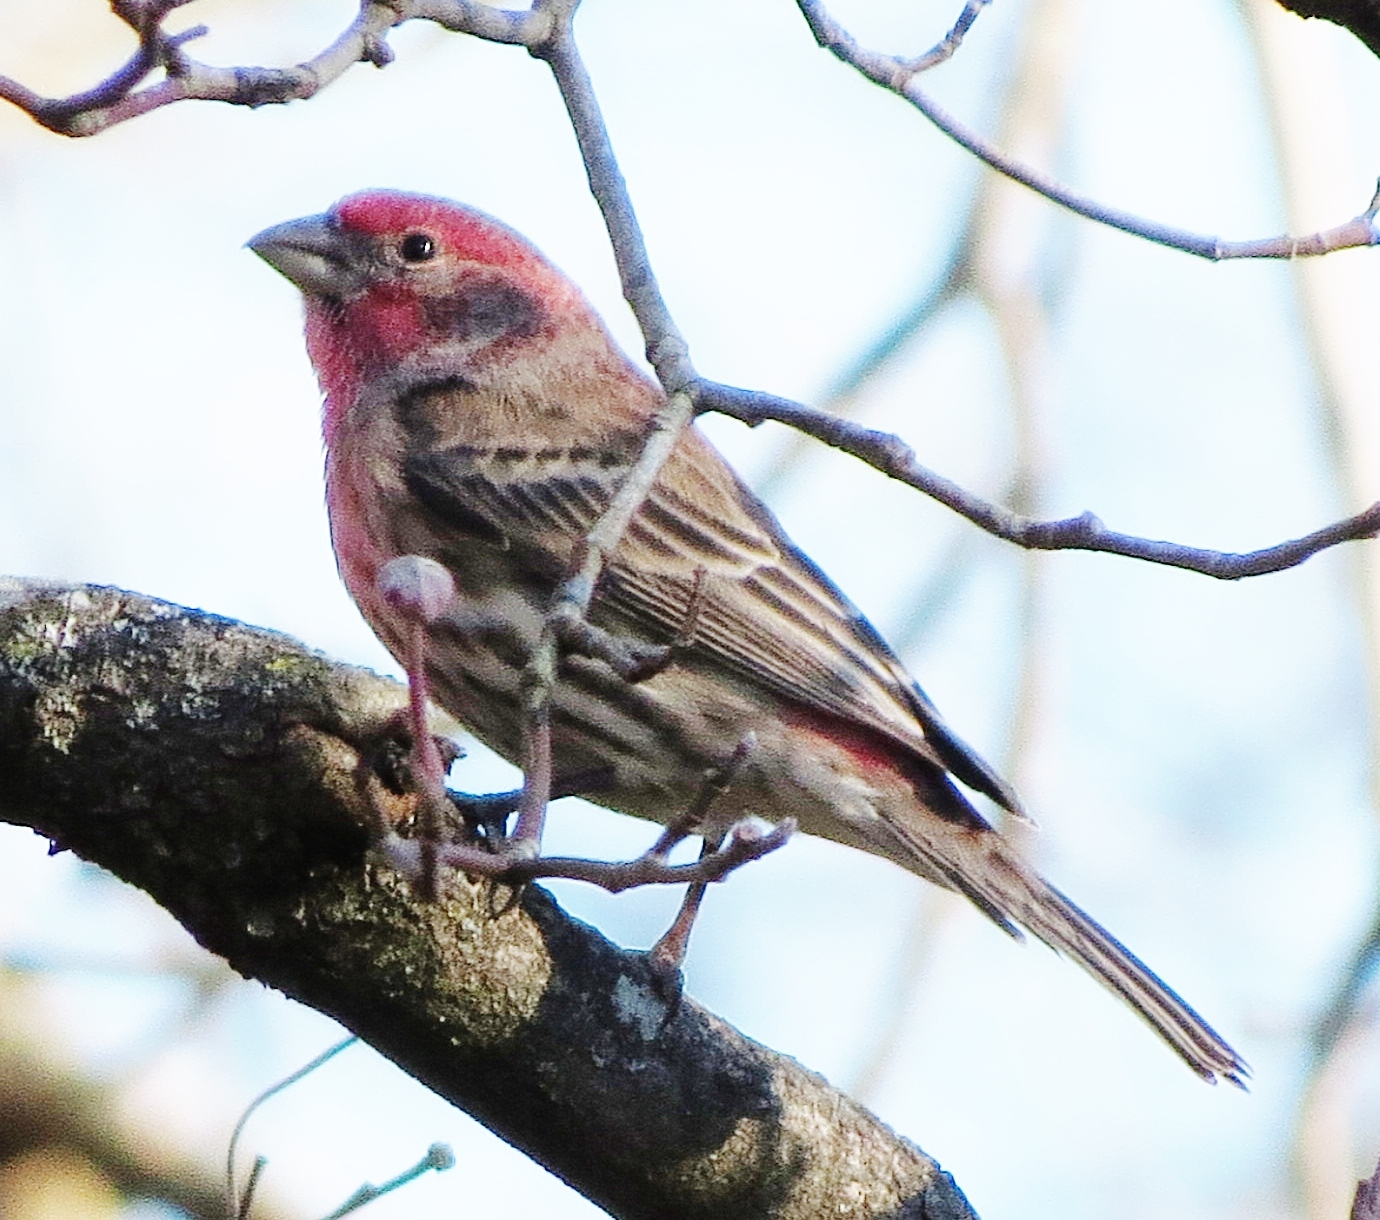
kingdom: Animalia
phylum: Chordata
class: Aves
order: Passeriformes
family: Fringillidae
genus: Haemorhous
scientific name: Haemorhous mexicanus
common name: House finch
